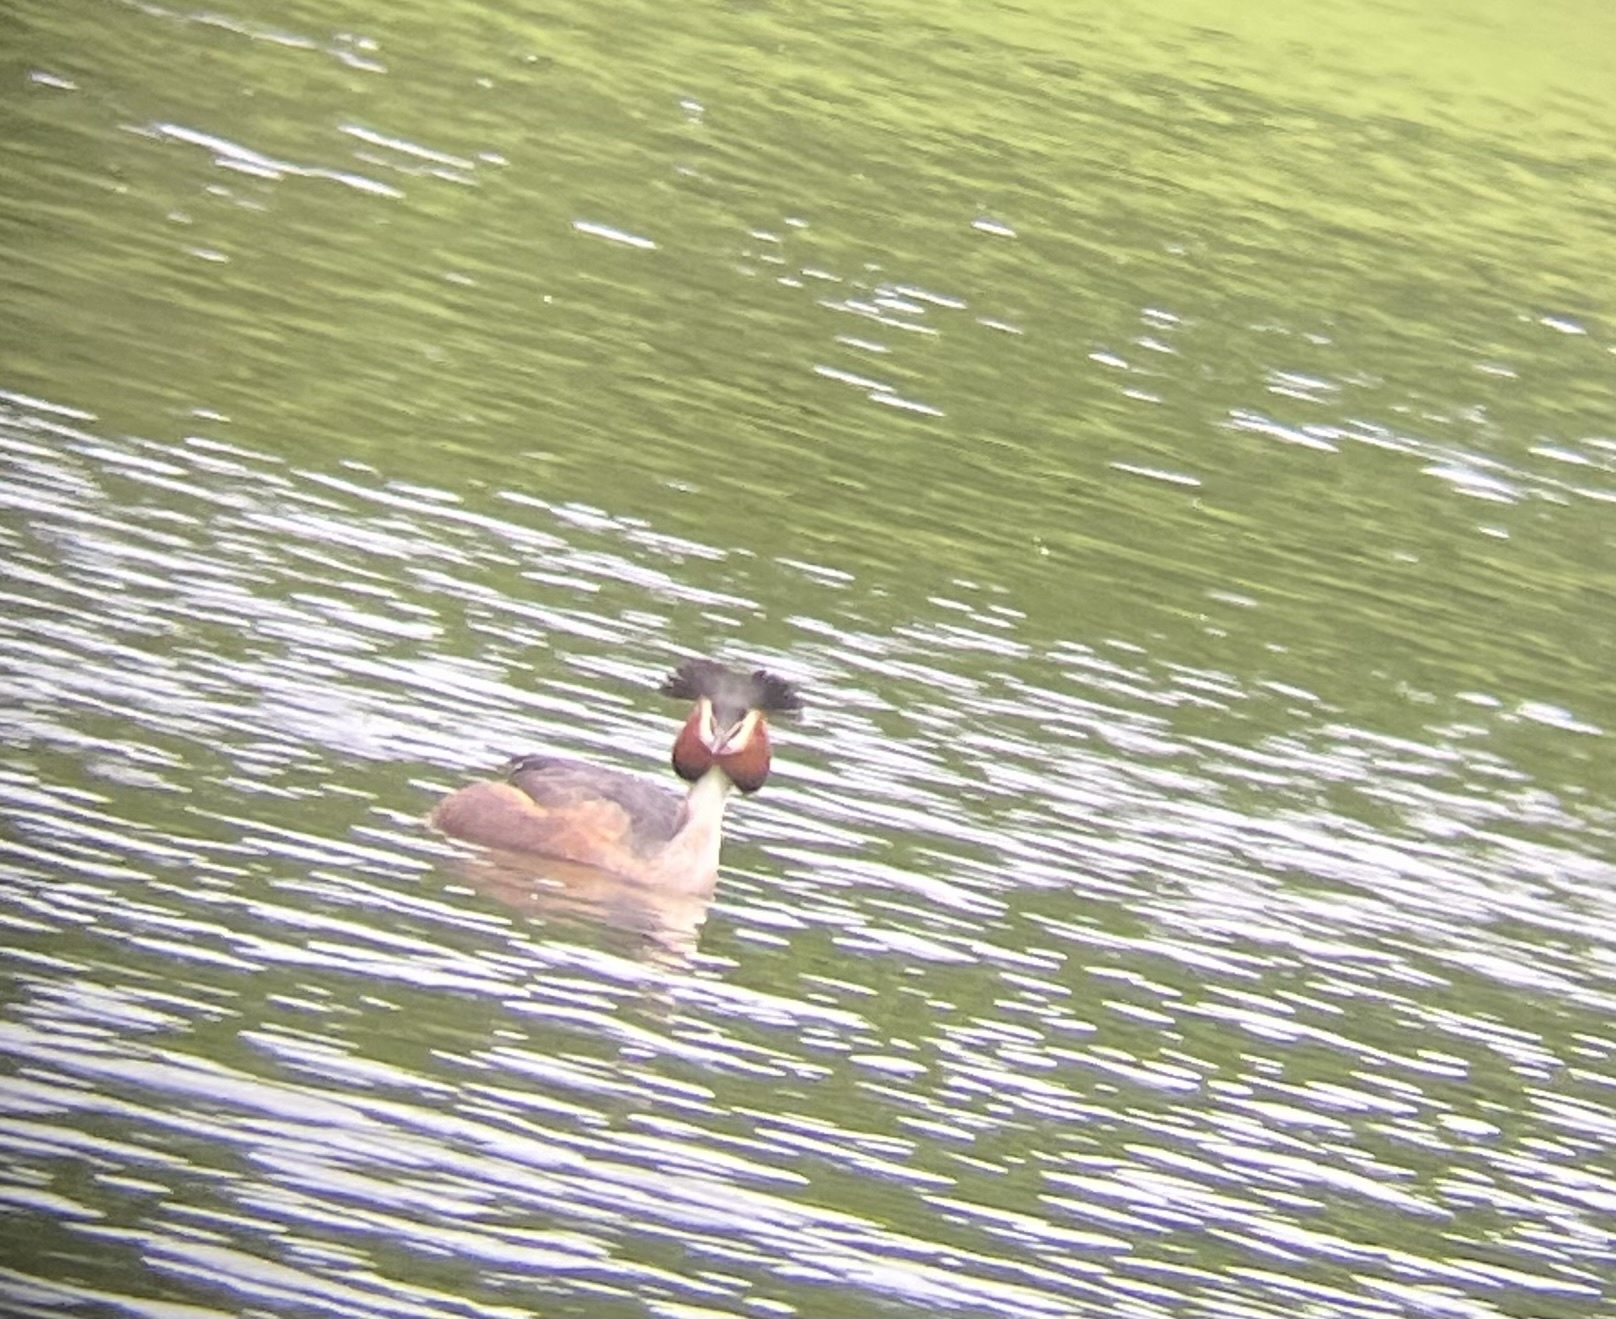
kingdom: Animalia
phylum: Chordata
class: Aves
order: Podicipediformes
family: Podicipedidae
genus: Podiceps
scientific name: Podiceps cristatus
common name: Great crested grebe
